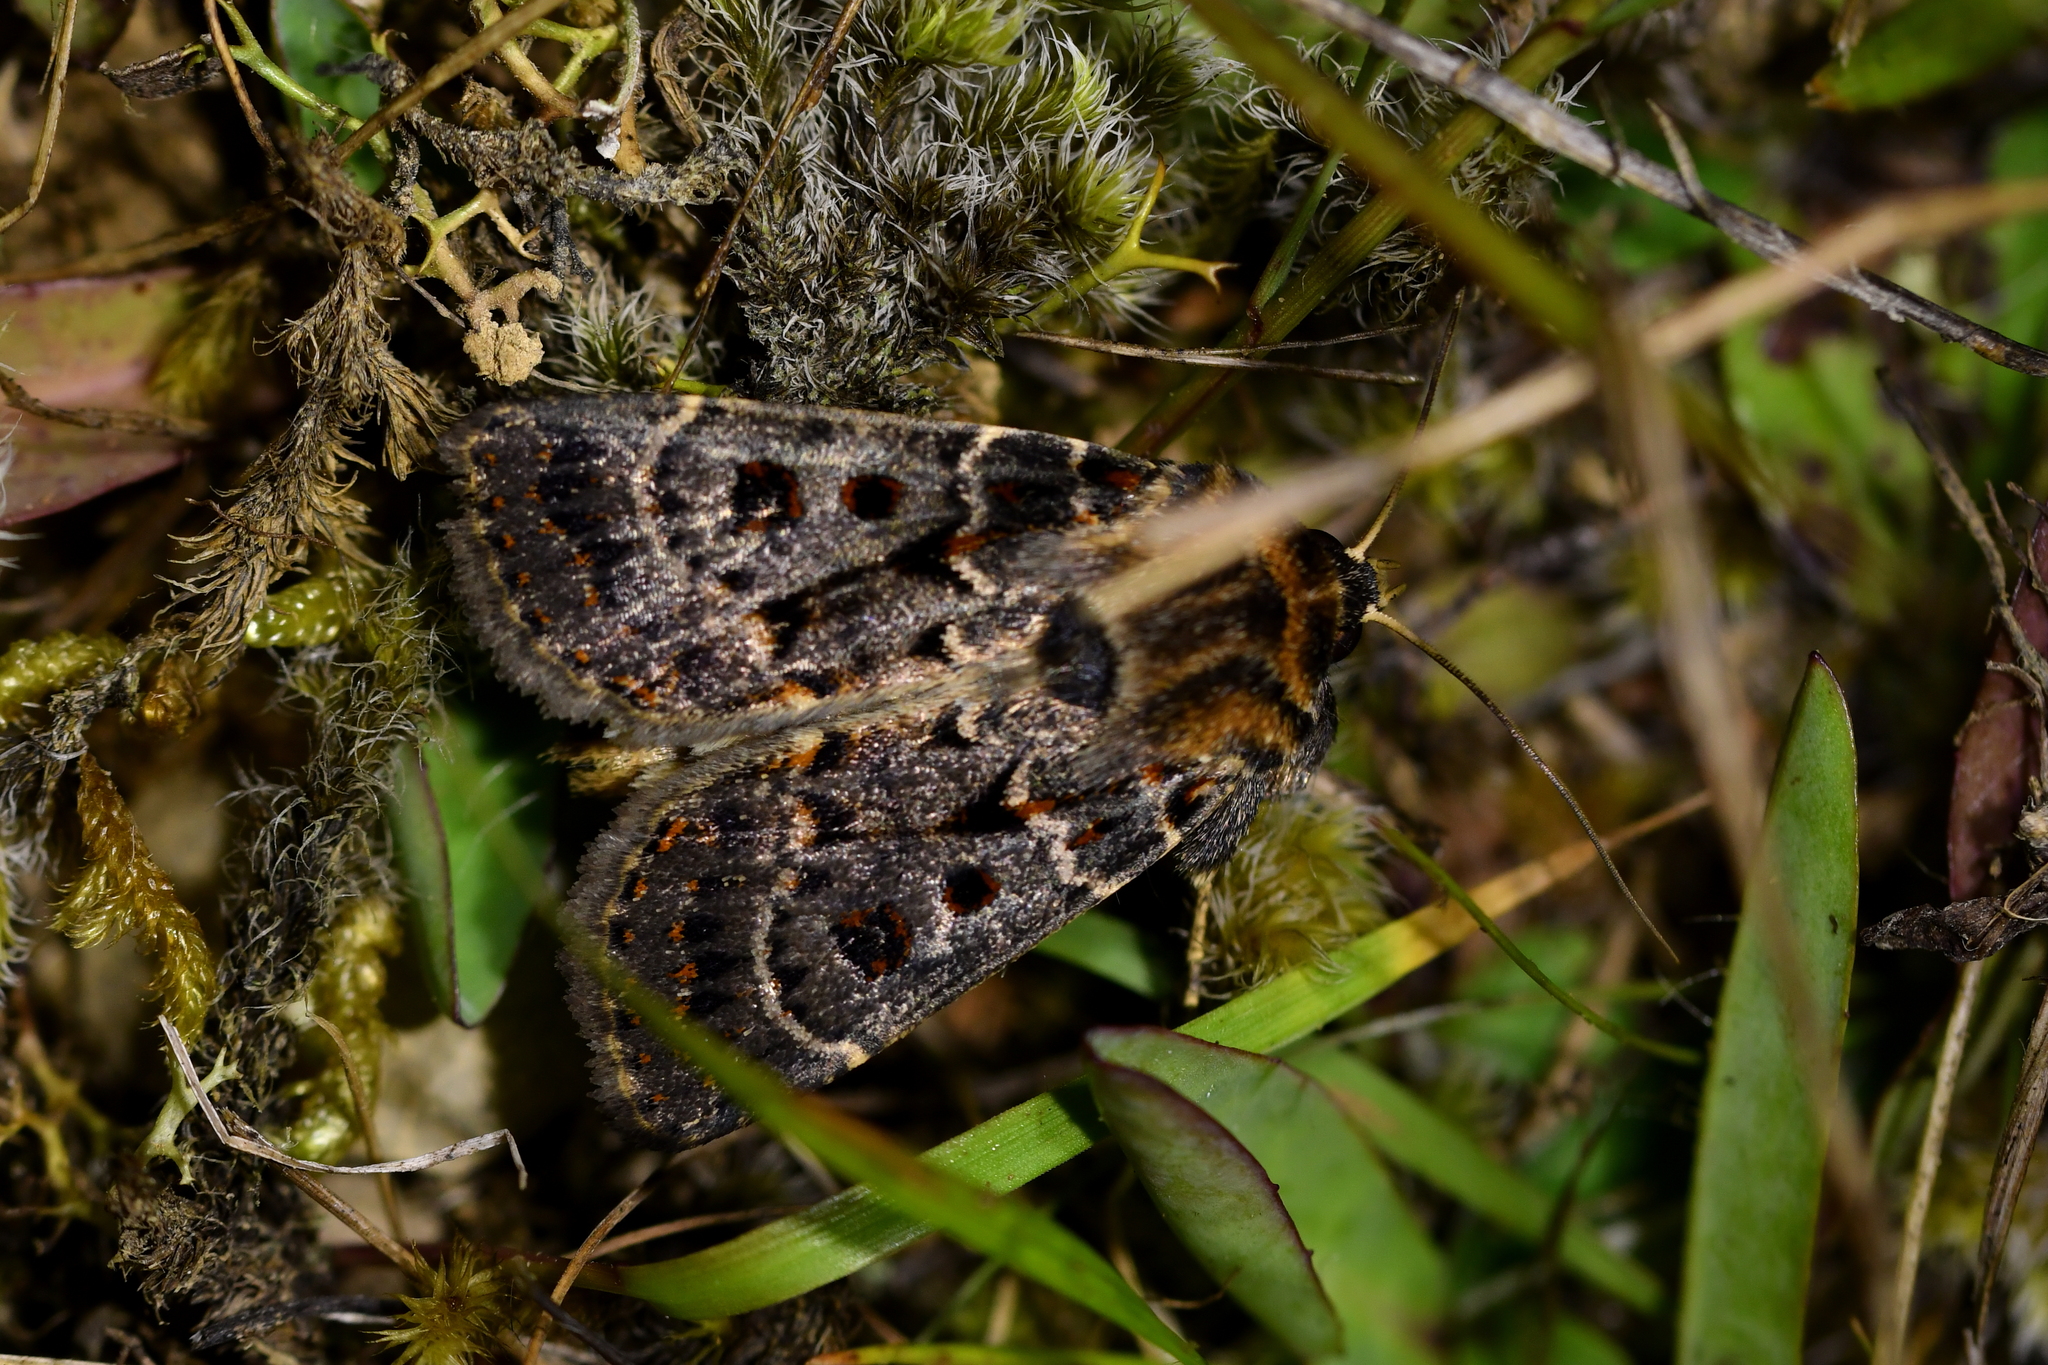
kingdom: Animalia
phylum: Arthropoda
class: Insecta
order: Lepidoptera
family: Noctuidae
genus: Proteuxoa
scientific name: Proteuxoa sanguinipuncta
